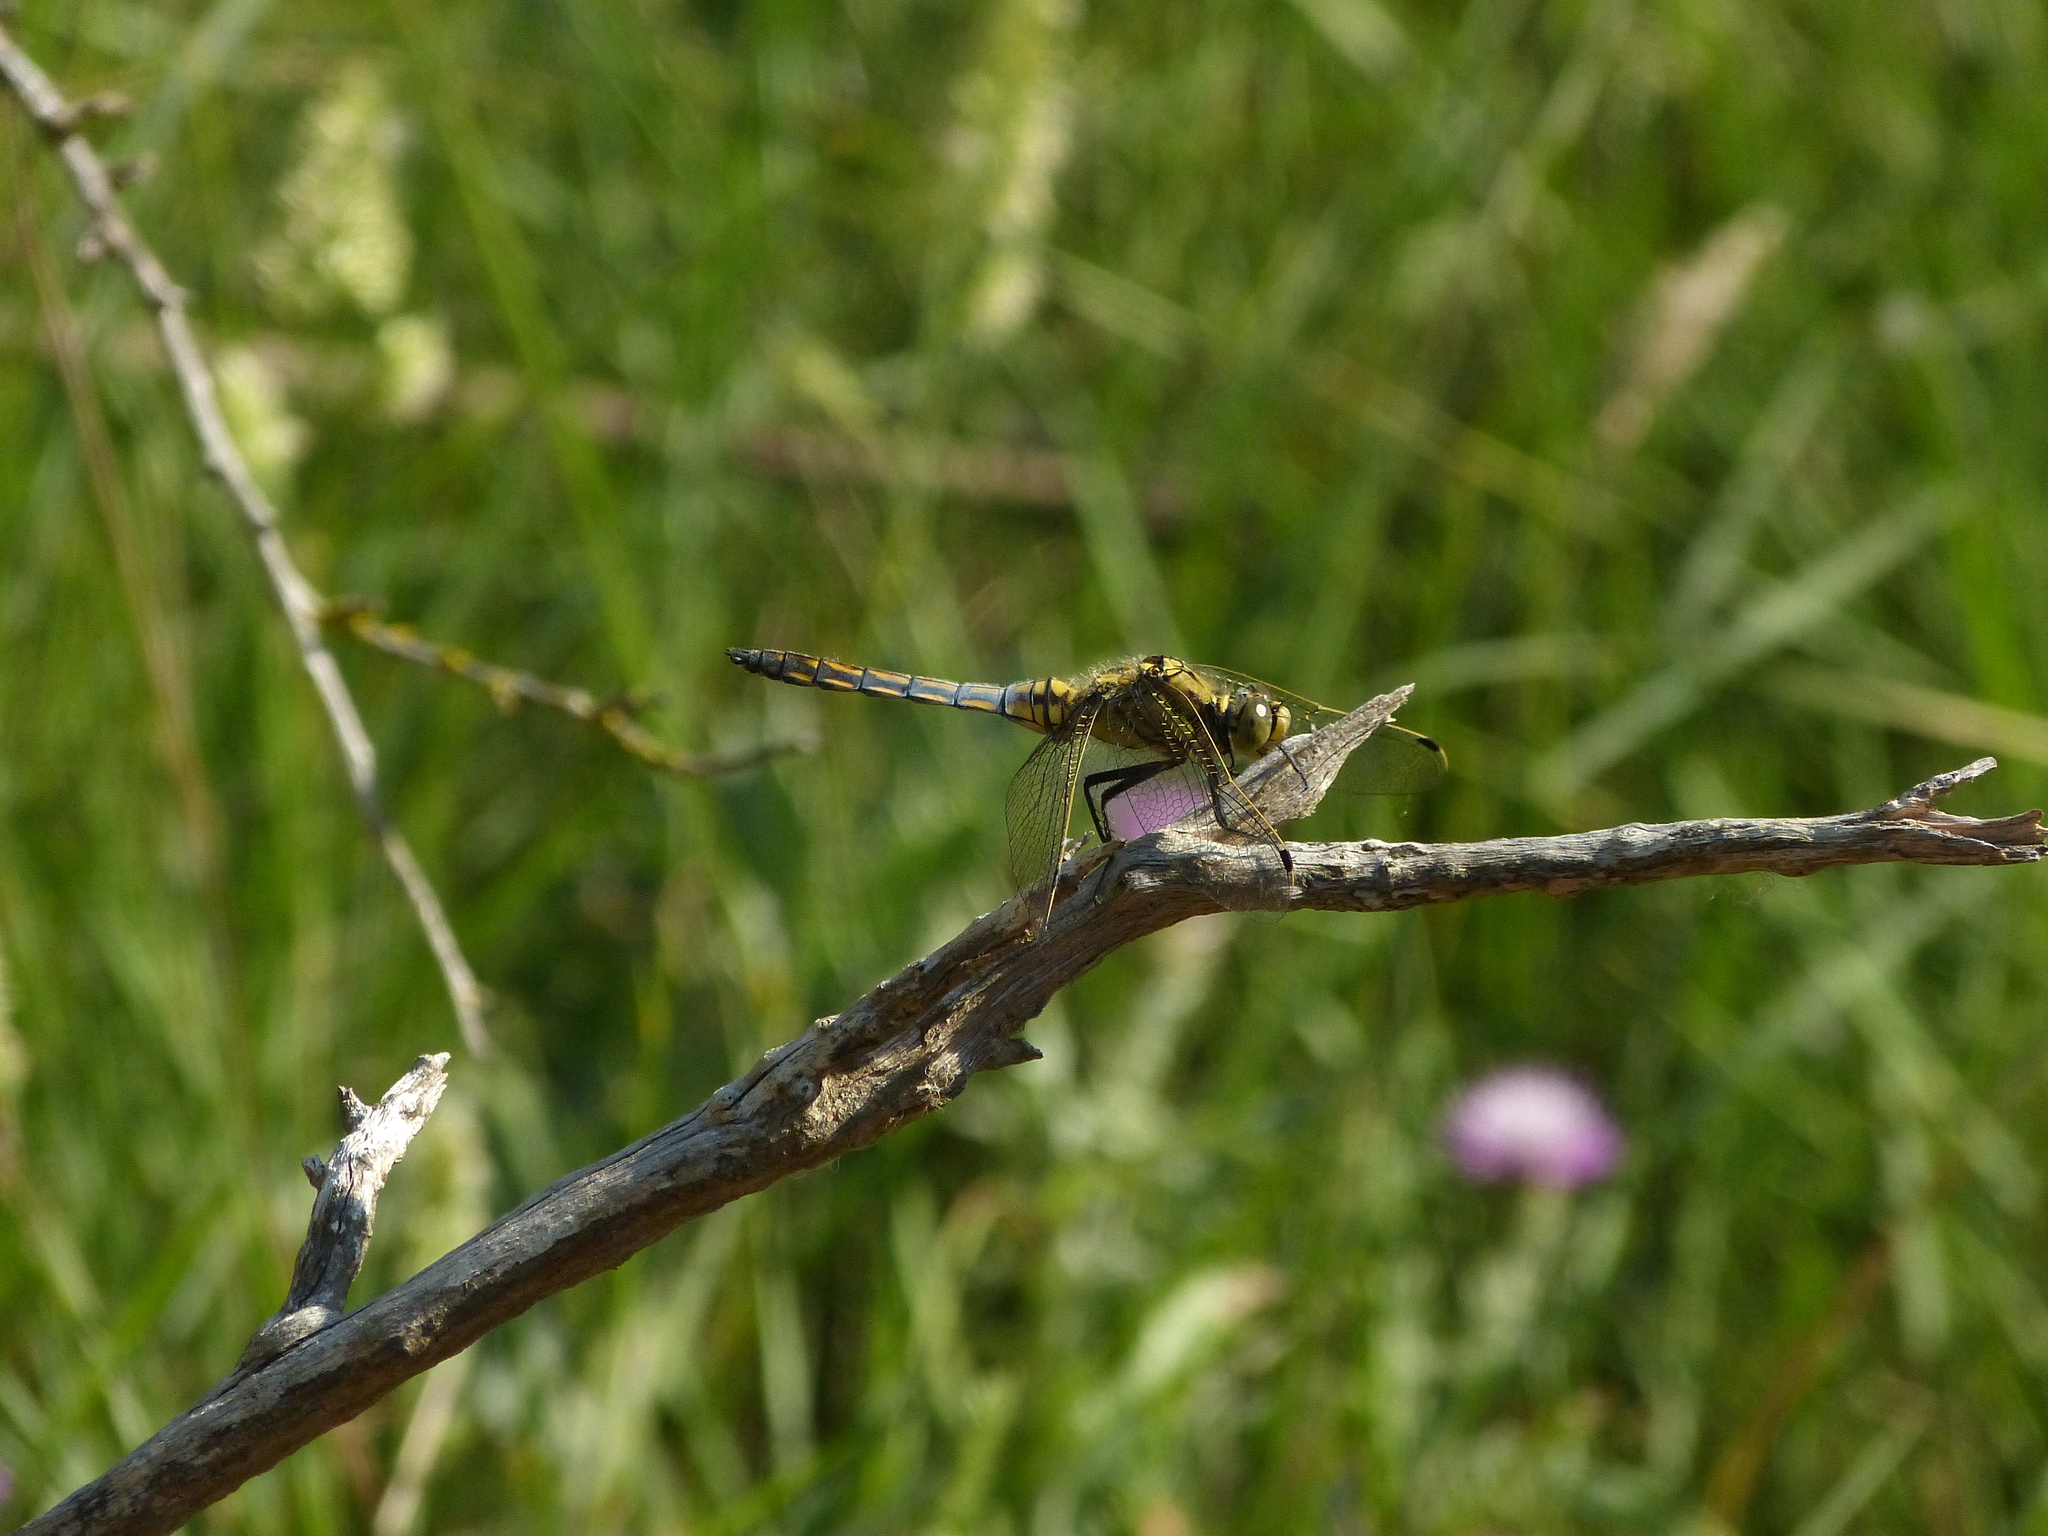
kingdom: Animalia
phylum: Arthropoda
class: Insecta
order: Odonata
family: Libellulidae
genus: Orthetrum
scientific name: Orthetrum cancellatum
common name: Black-tailed skimmer
